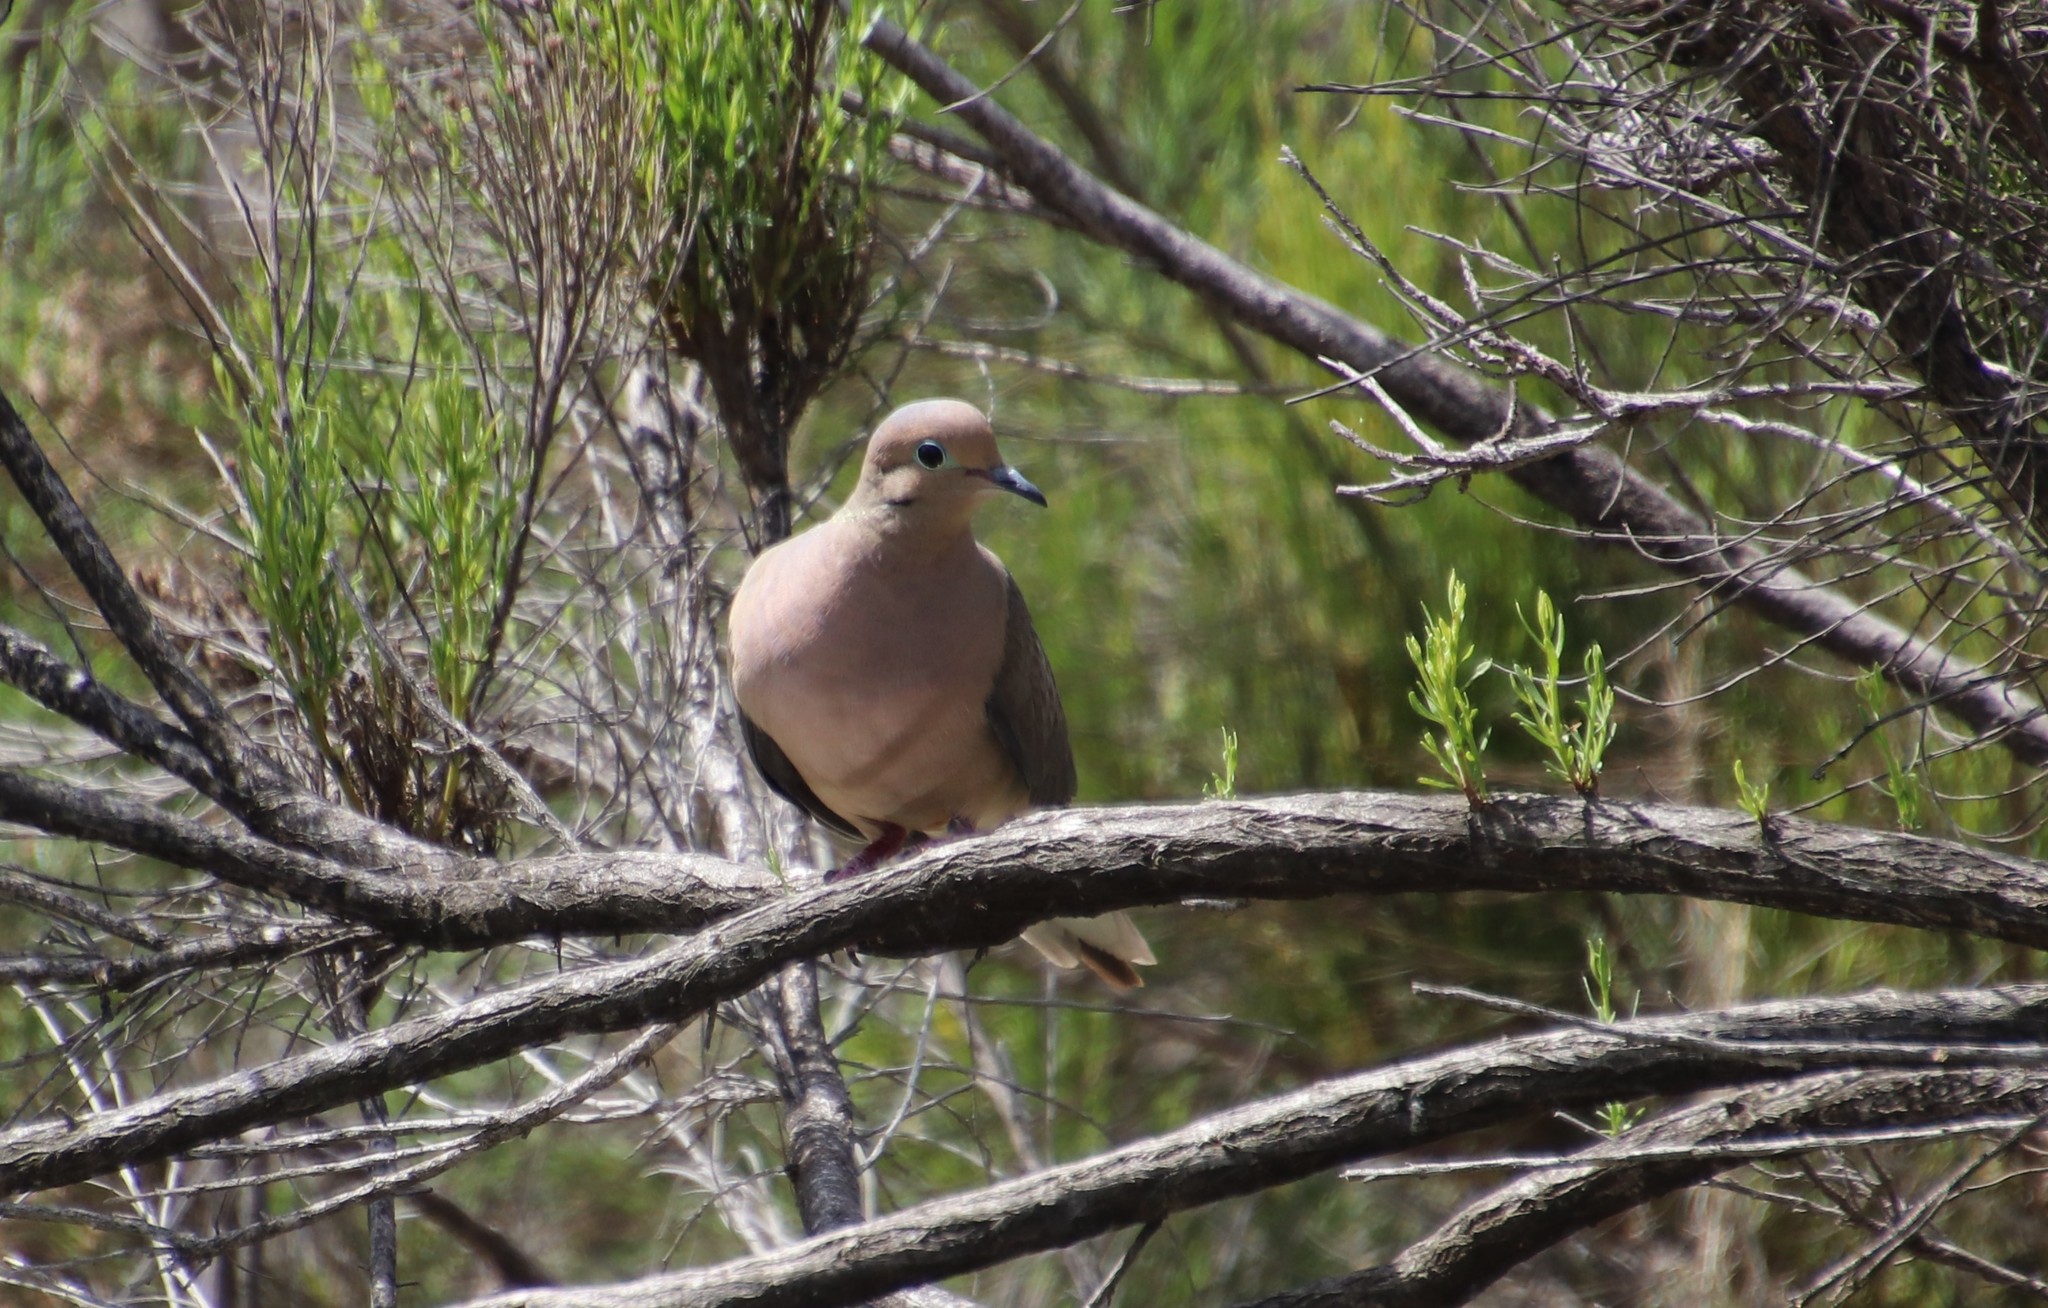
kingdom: Animalia
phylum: Chordata
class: Aves
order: Columbiformes
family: Columbidae
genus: Zenaida
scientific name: Zenaida macroura
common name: Mourning dove
